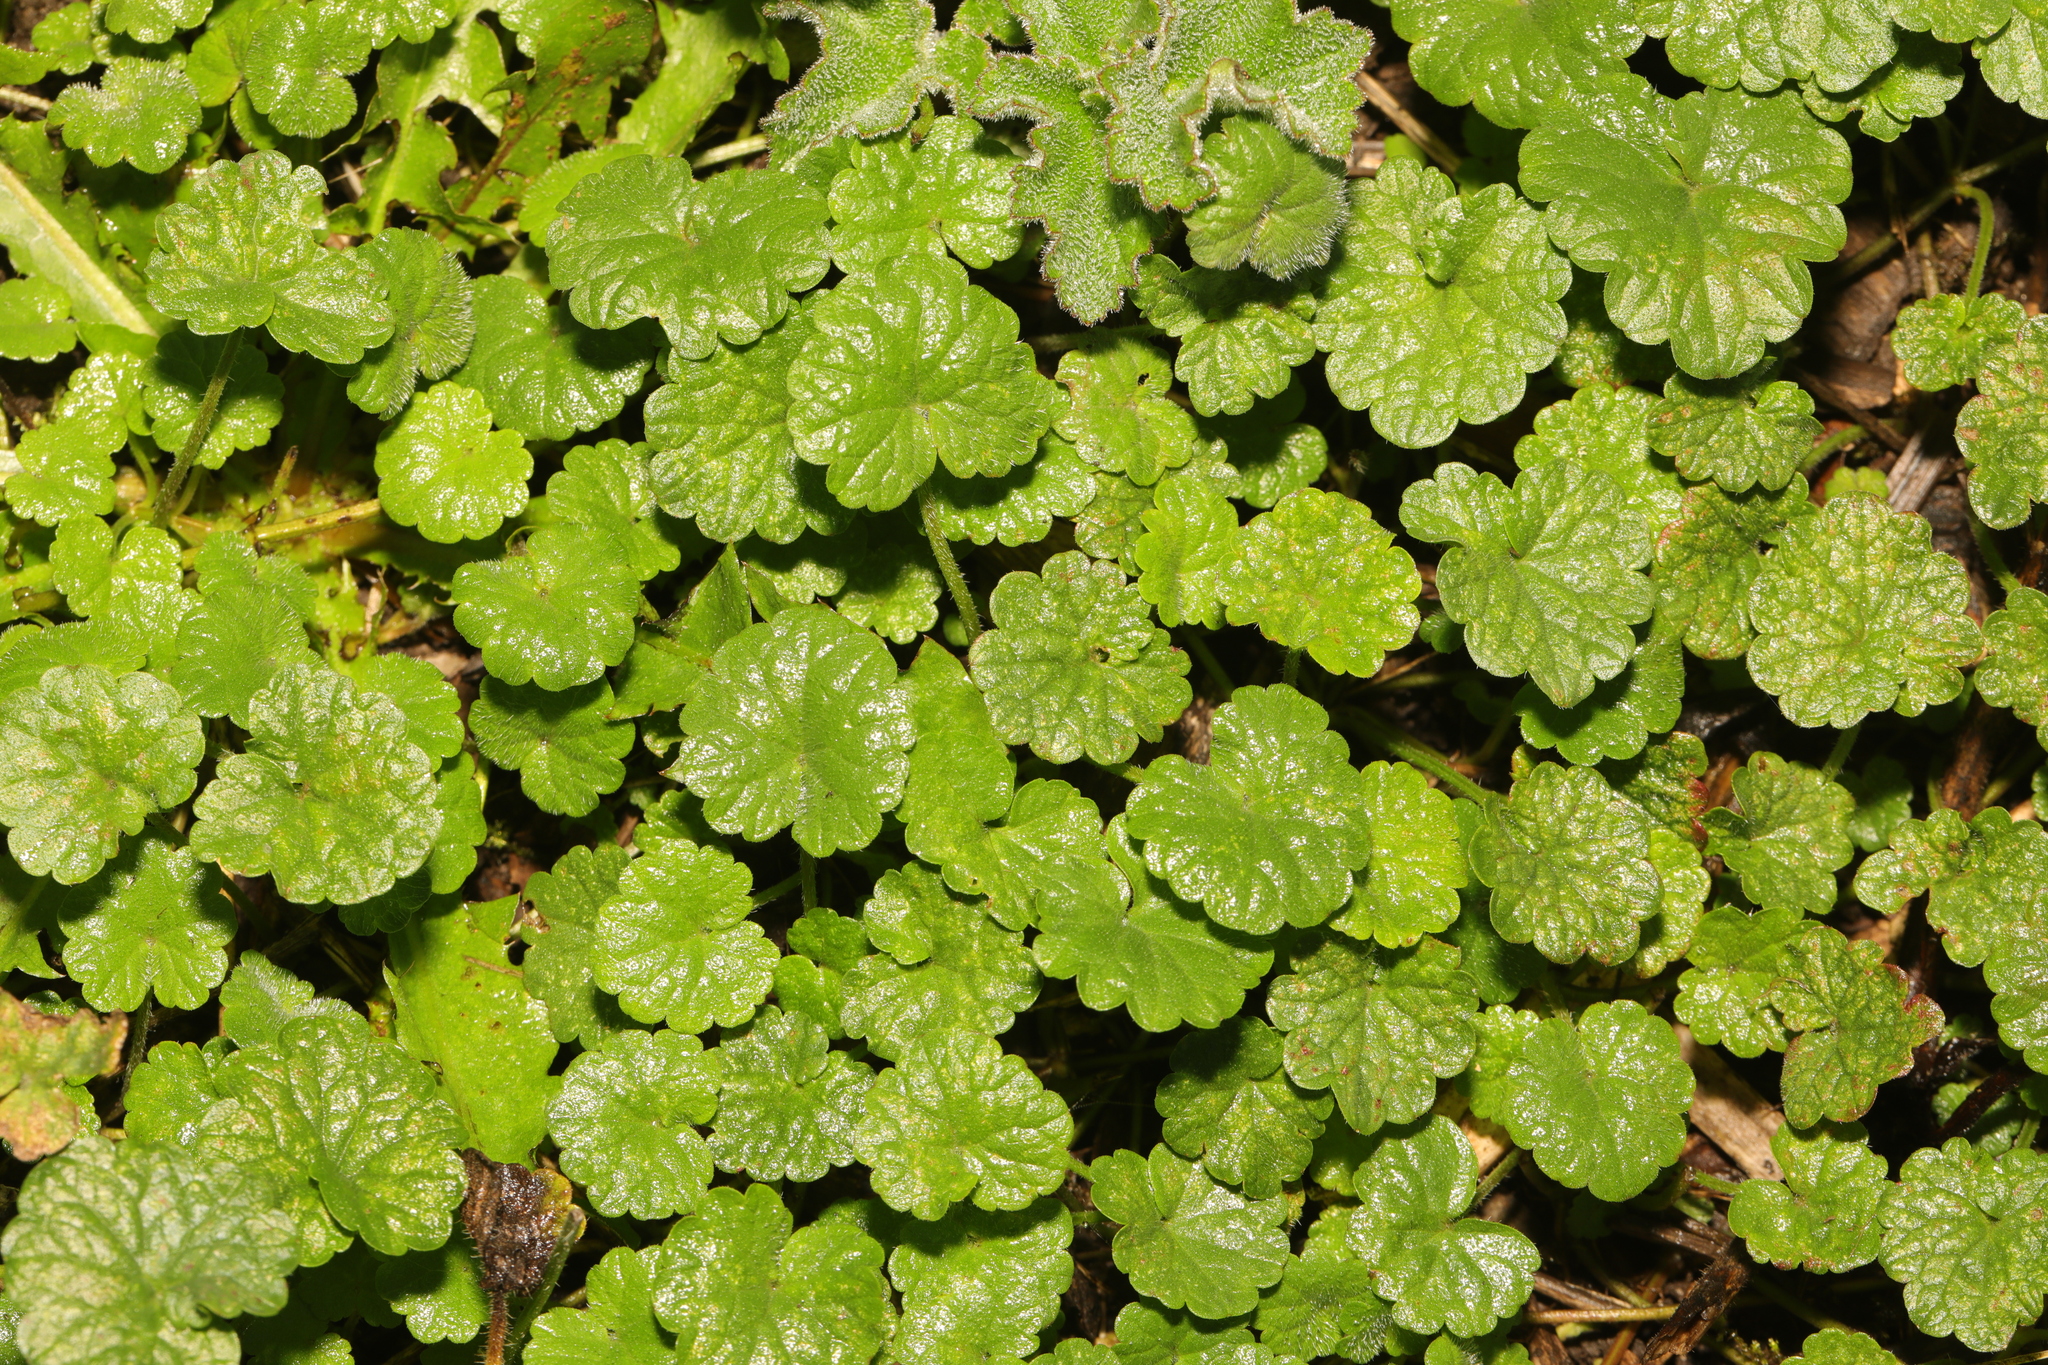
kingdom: Plantae
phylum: Tracheophyta
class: Magnoliopsida
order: Lamiales
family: Lamiaceae
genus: Glechoma
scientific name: Glechoma hederacea
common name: Ground ivy
